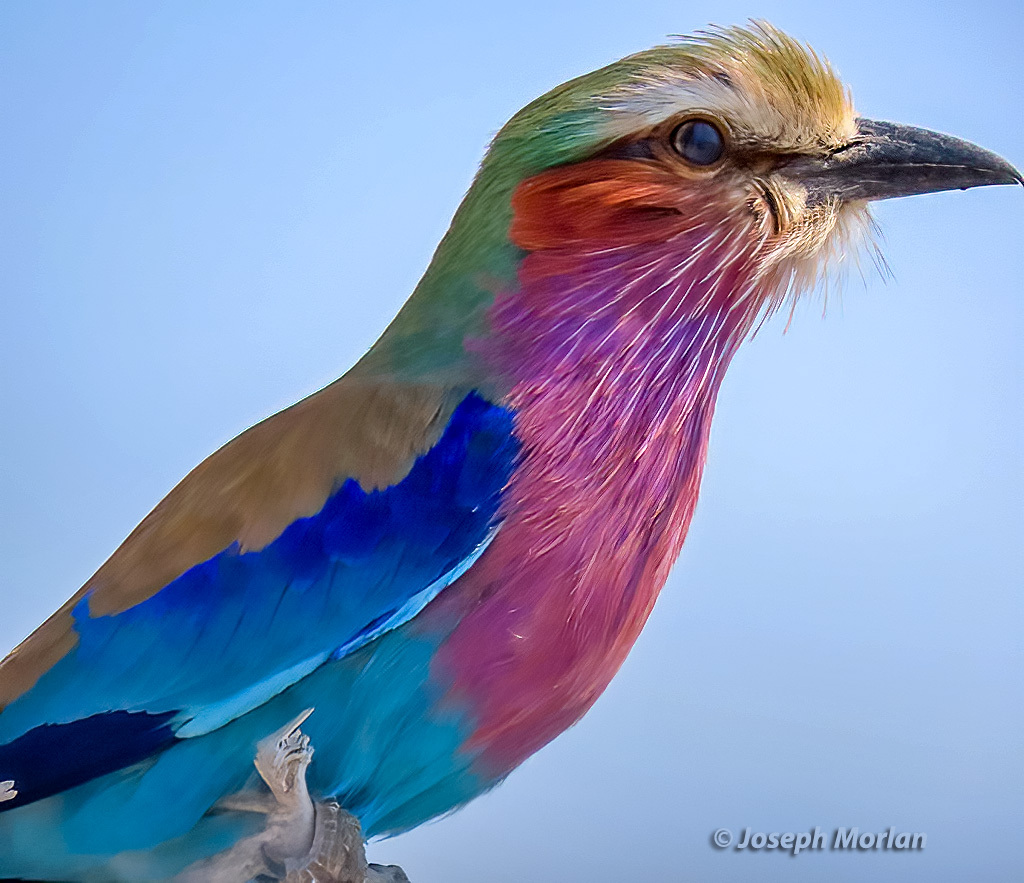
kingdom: Animalia
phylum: Chordata
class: Aves
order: Coraciiformes
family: Coraciidae
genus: Coracias
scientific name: Coracias caudatus
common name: Lilac-breasted roller
